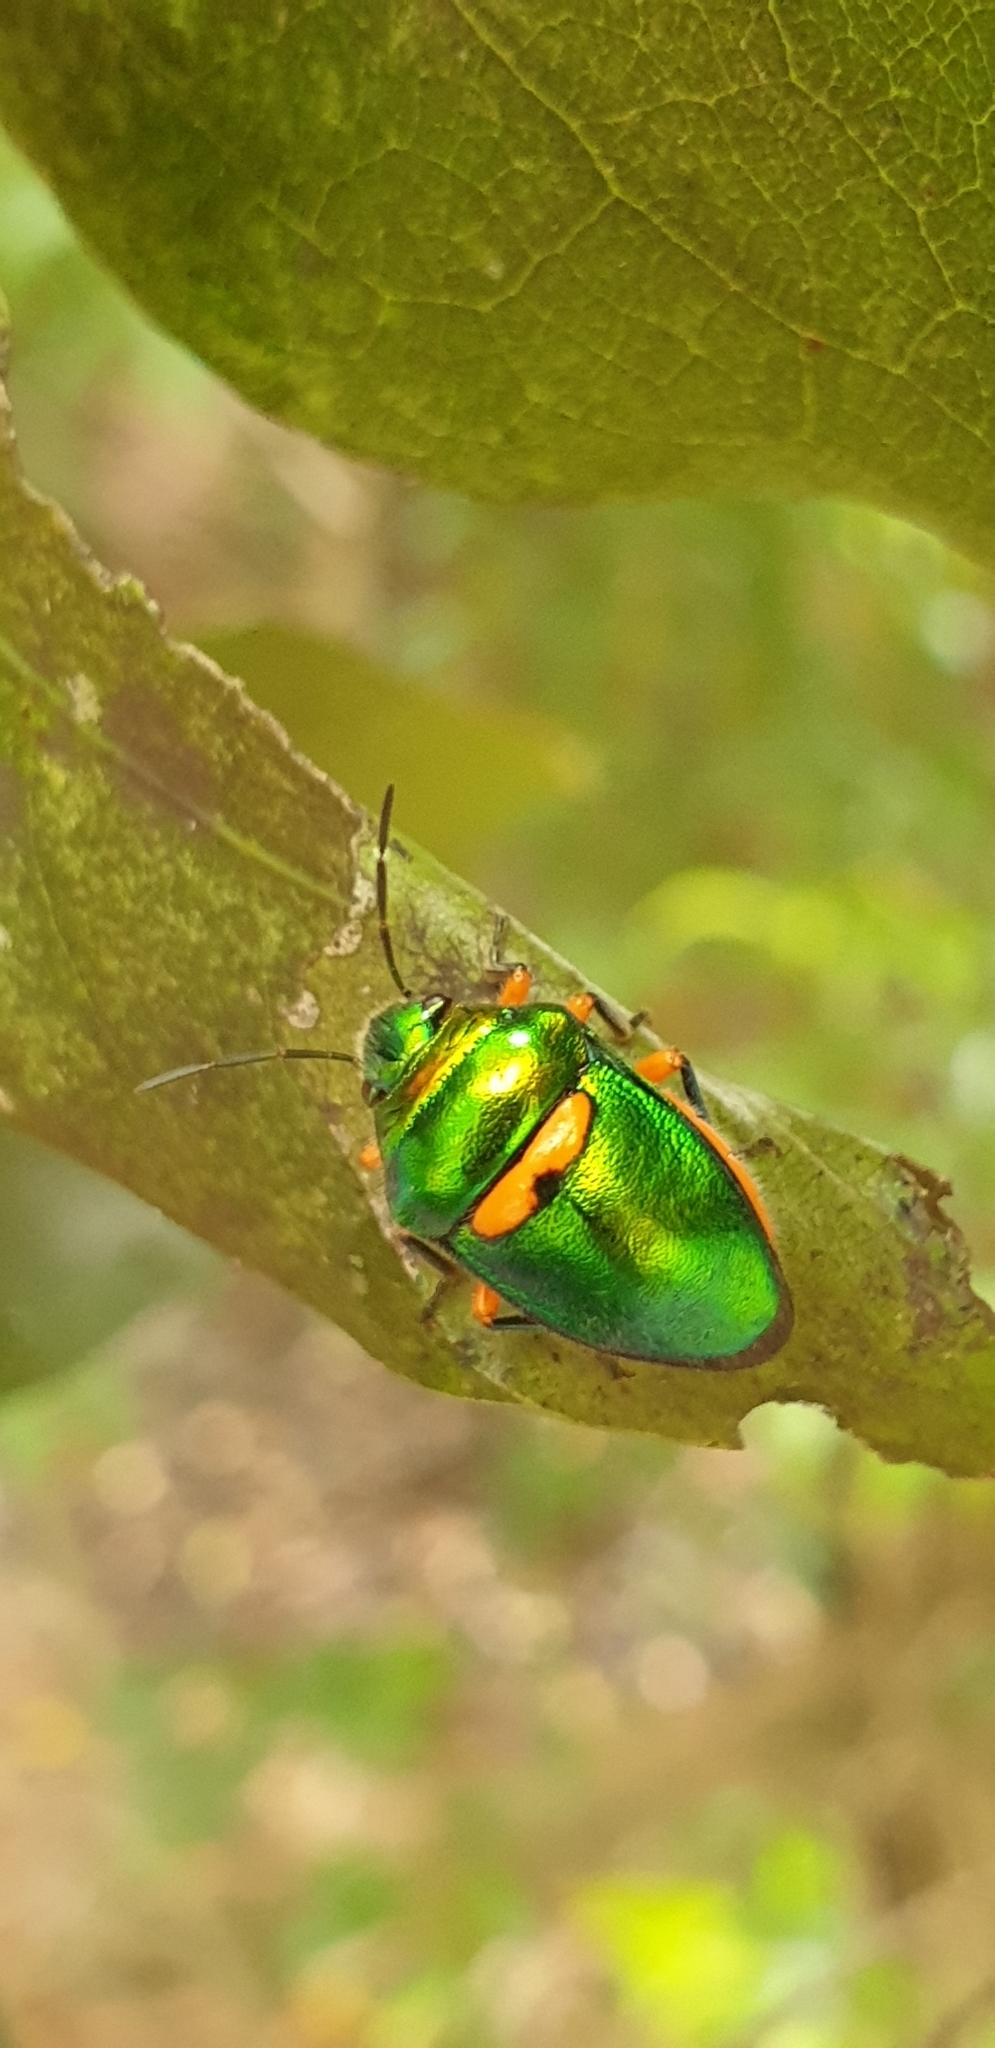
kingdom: Animalia
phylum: Arthropoda
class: Insecta
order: Hemiptera
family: Scutelleridae
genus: Lampromicra
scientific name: Lampromicra senator
